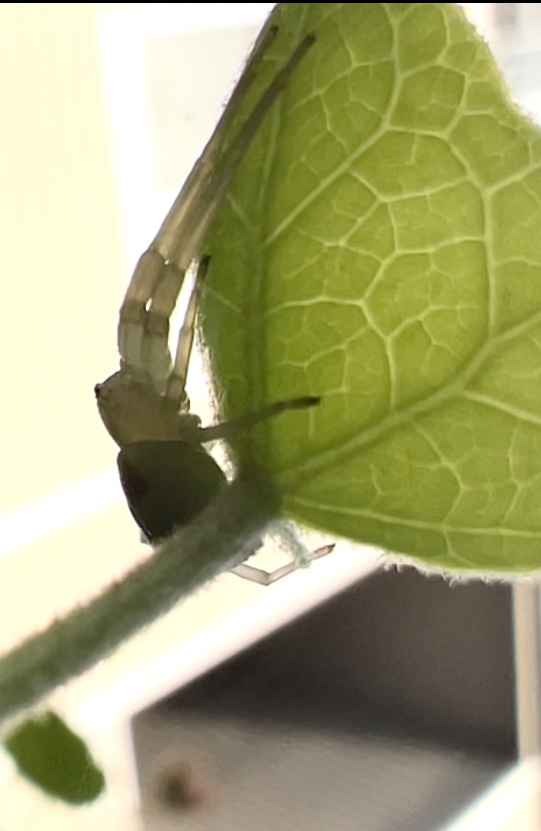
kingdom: Animalia
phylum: Arthropoda
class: Arachnida
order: Araneae
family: Thomisidae
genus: Misumena
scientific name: Misumena vatia
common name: Goldenrod crab spider
